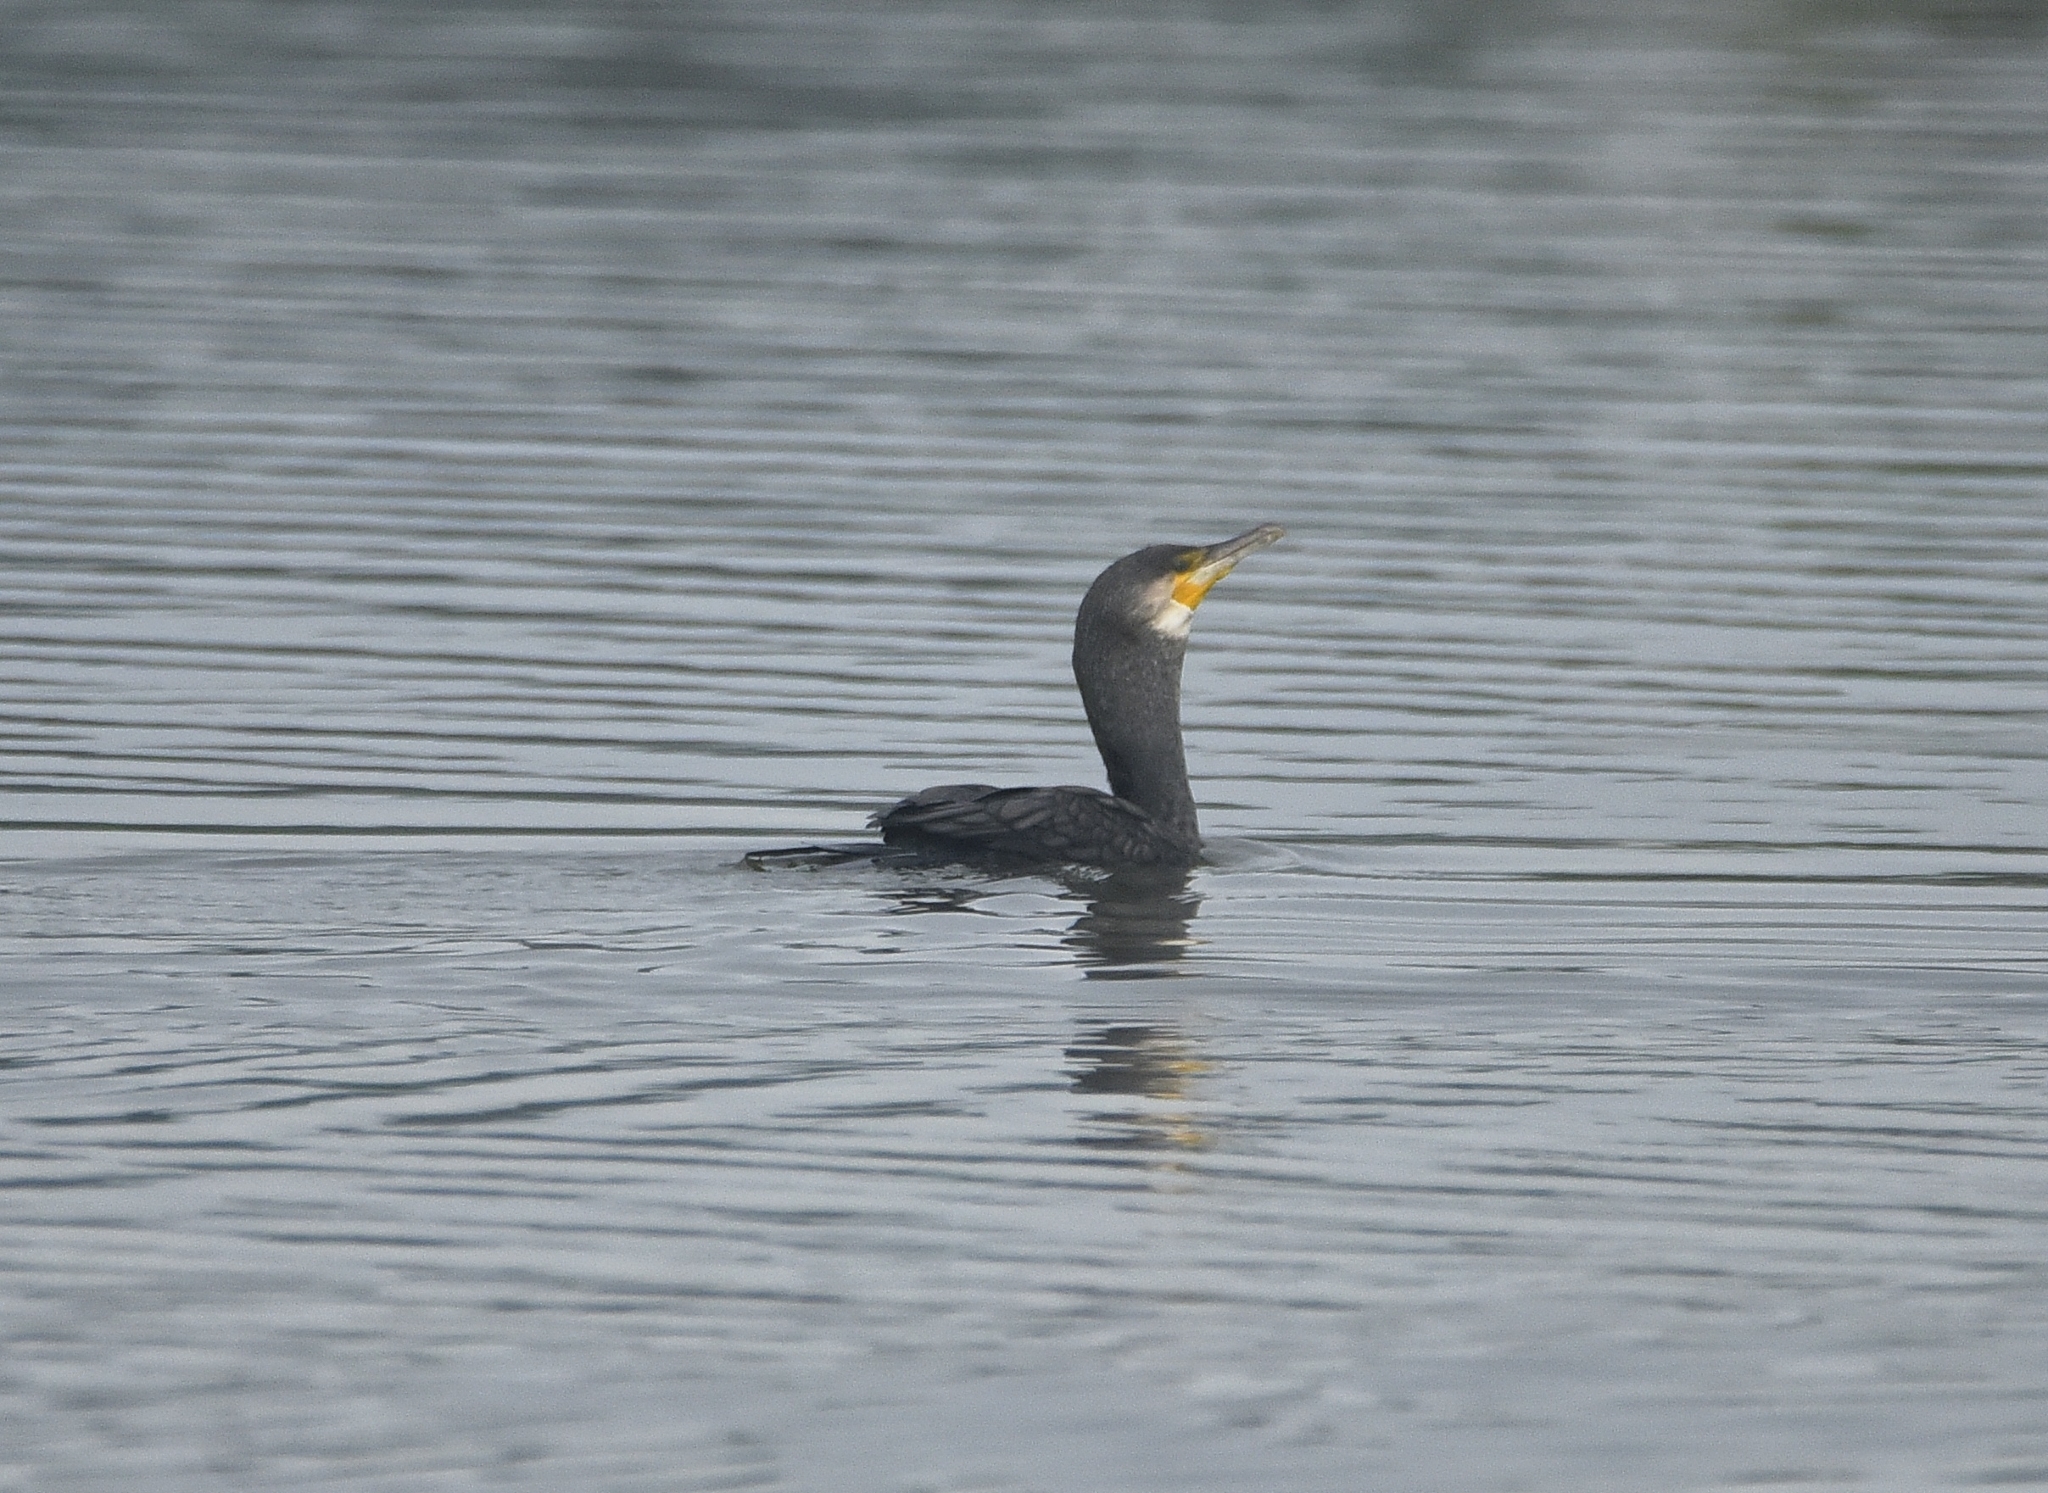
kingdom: Animalia
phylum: Chordata
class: Aves
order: Suliformes
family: Phalacrocoracidae
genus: Phalacrocorax
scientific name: Phalacrocorax carbo
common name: Great cormorant
